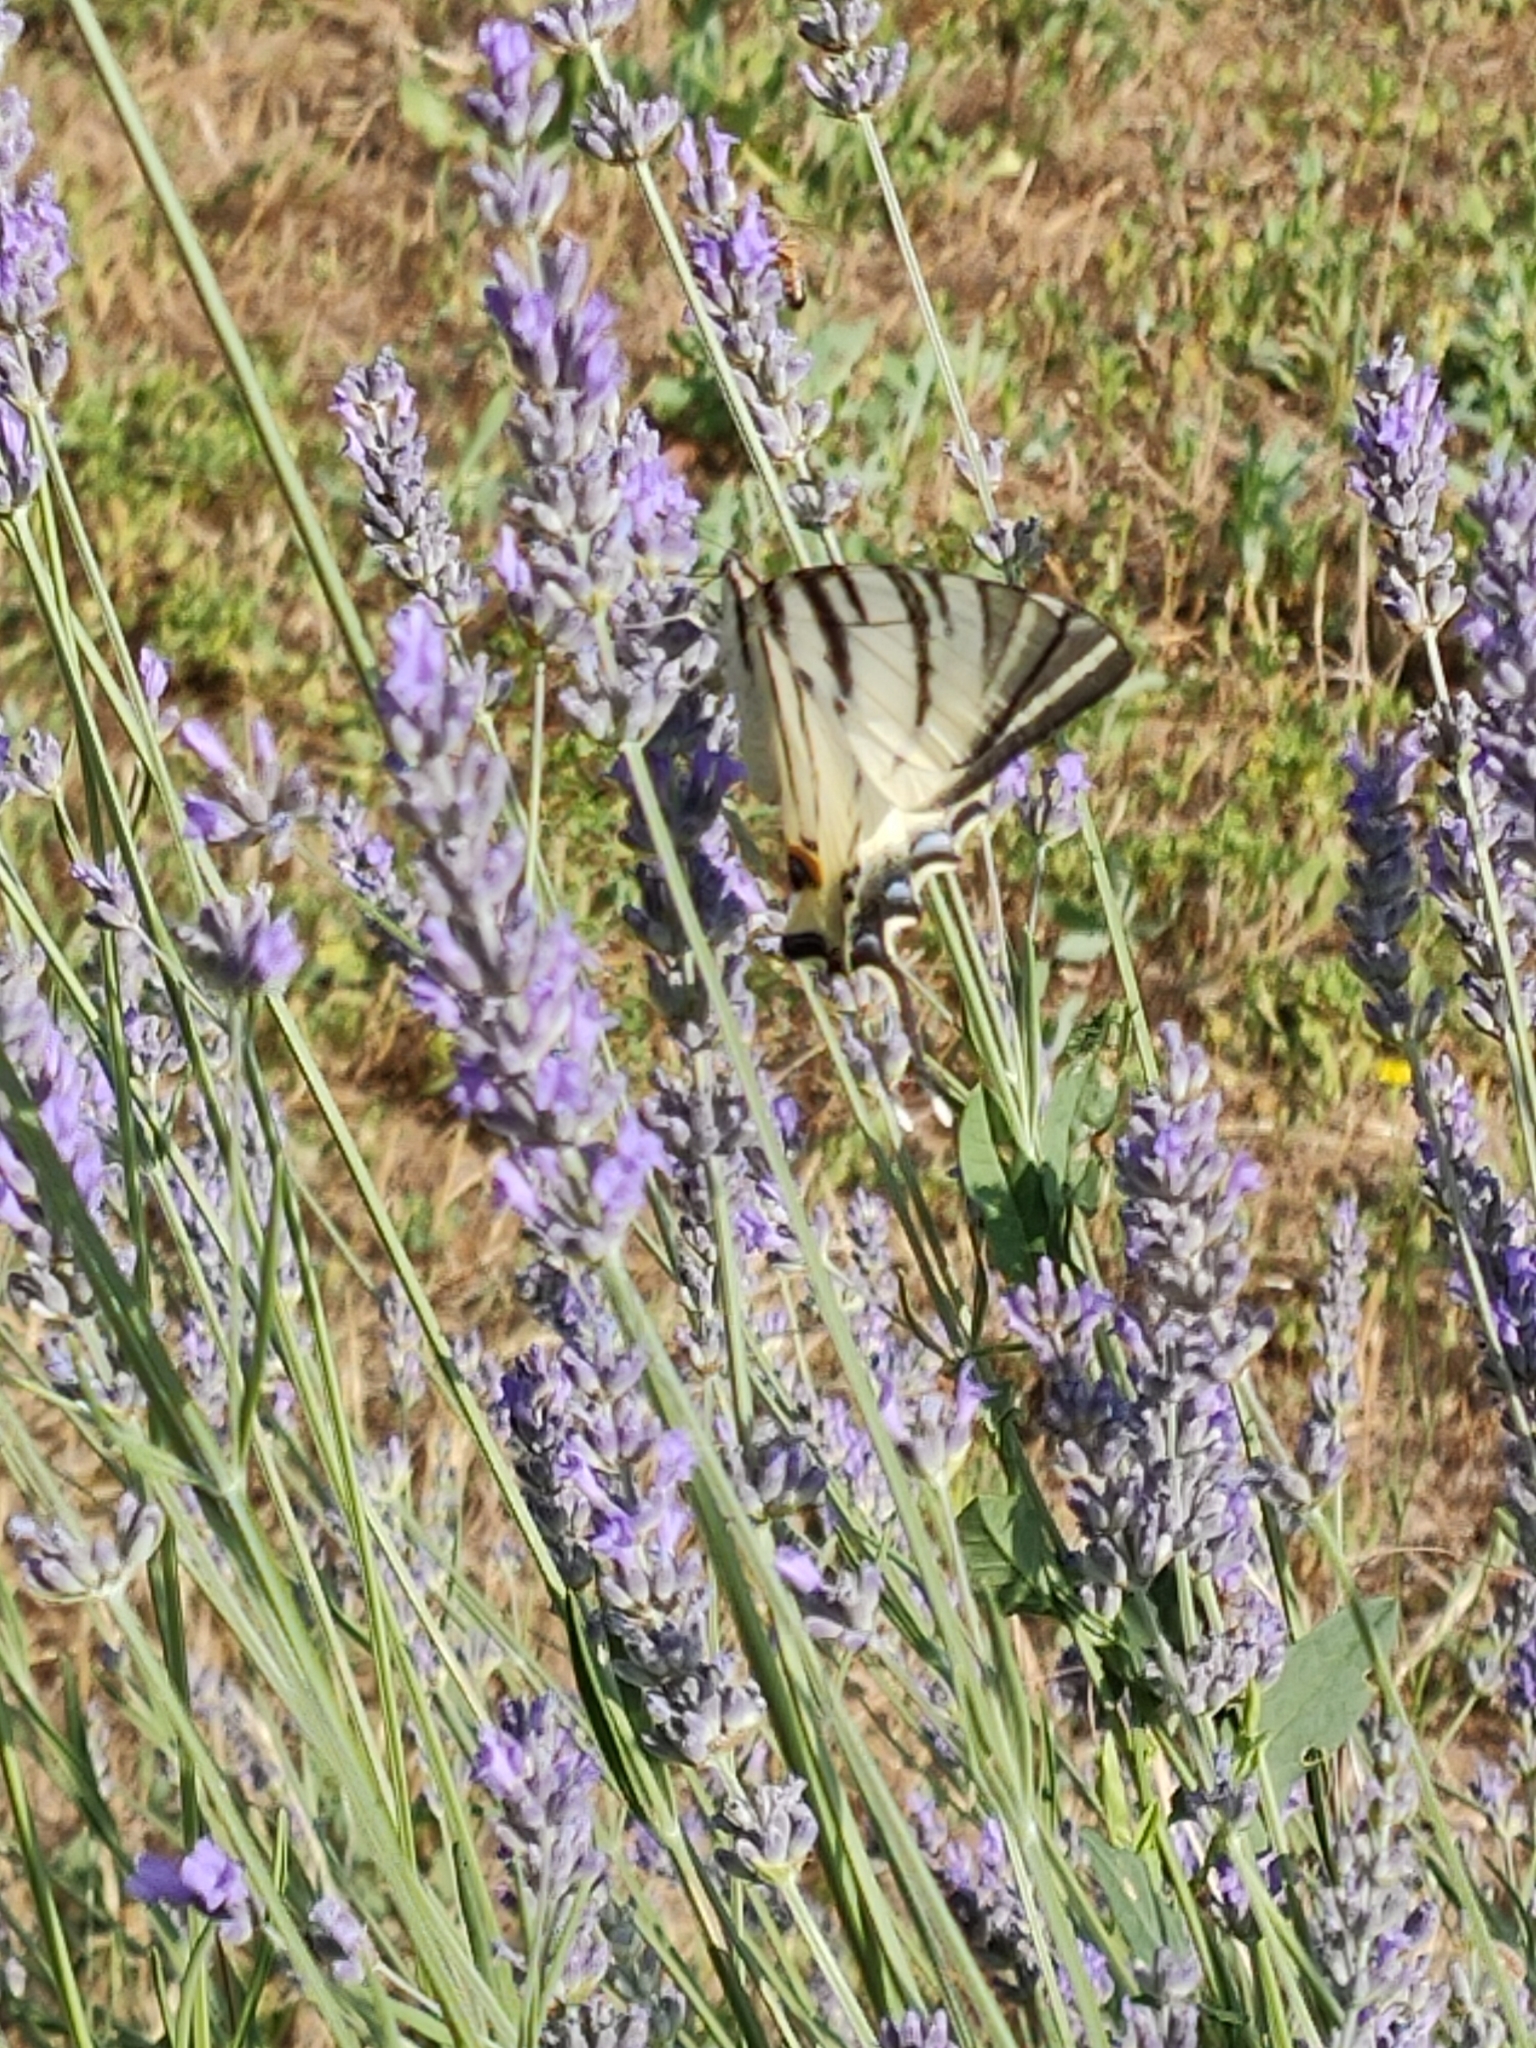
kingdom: Animalia
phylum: Arthropoda
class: Insecta
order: Lepidoptera
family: Papilionidae
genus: Iphiclides
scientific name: Iphiclides podalirius
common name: Scarce swallowtail
